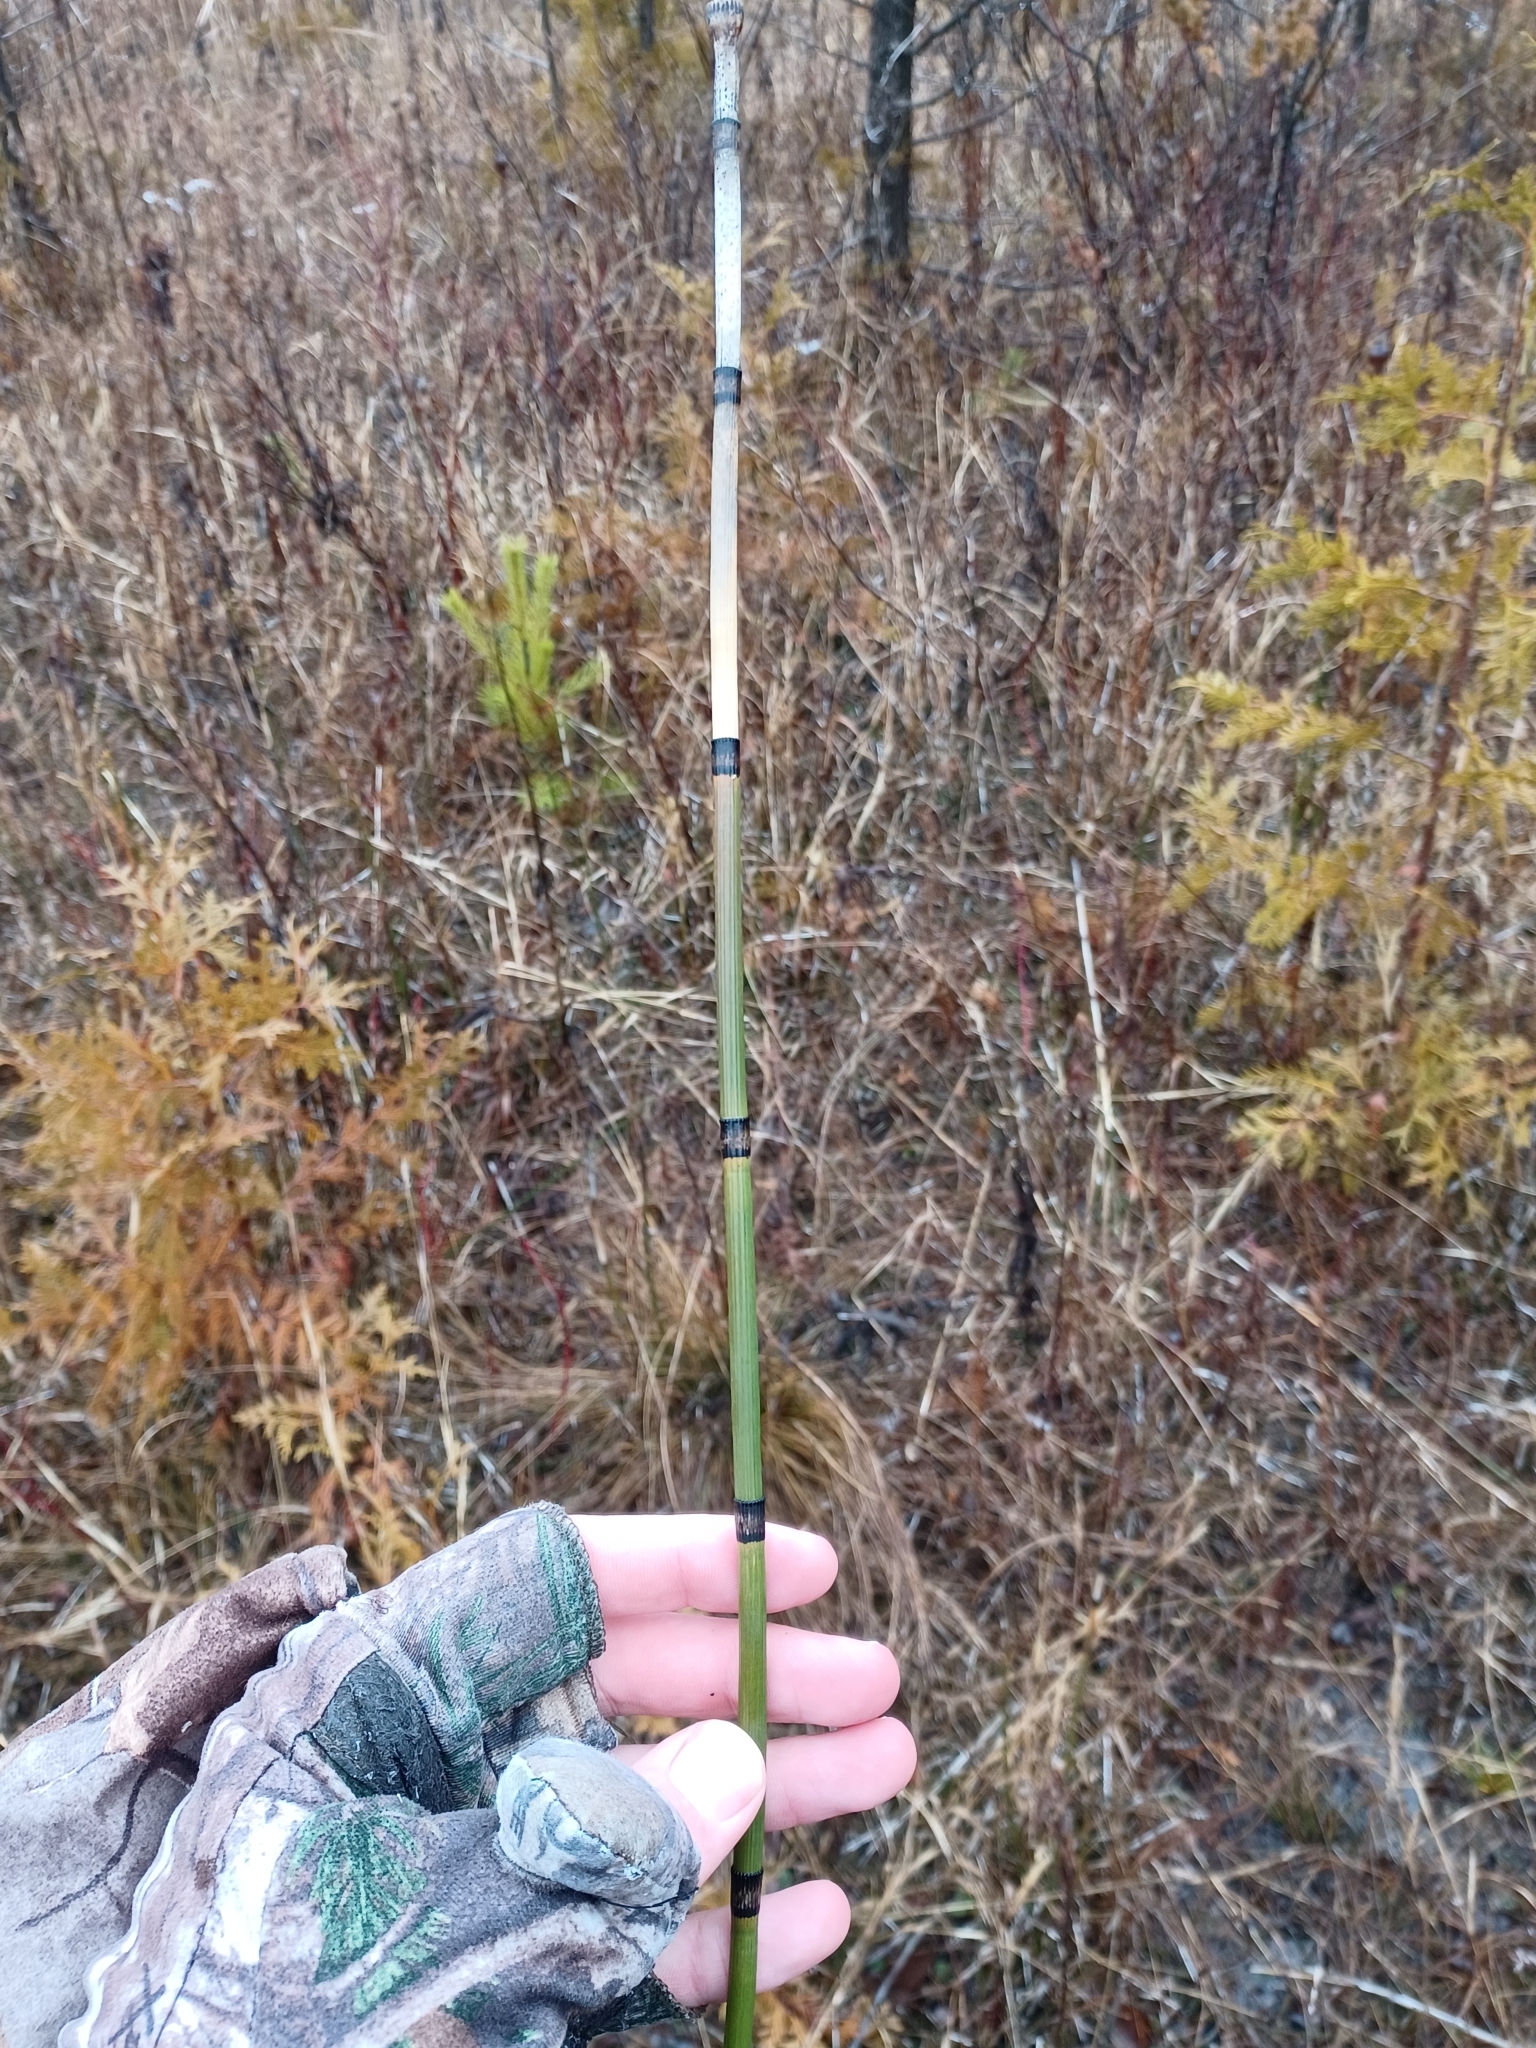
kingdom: Plantae
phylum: Tracheophyta
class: Polypodiopsida
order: Equisetales
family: Equisetaceae
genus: Equisetum
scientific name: Equisetum hyemale
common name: Rough horsetail
